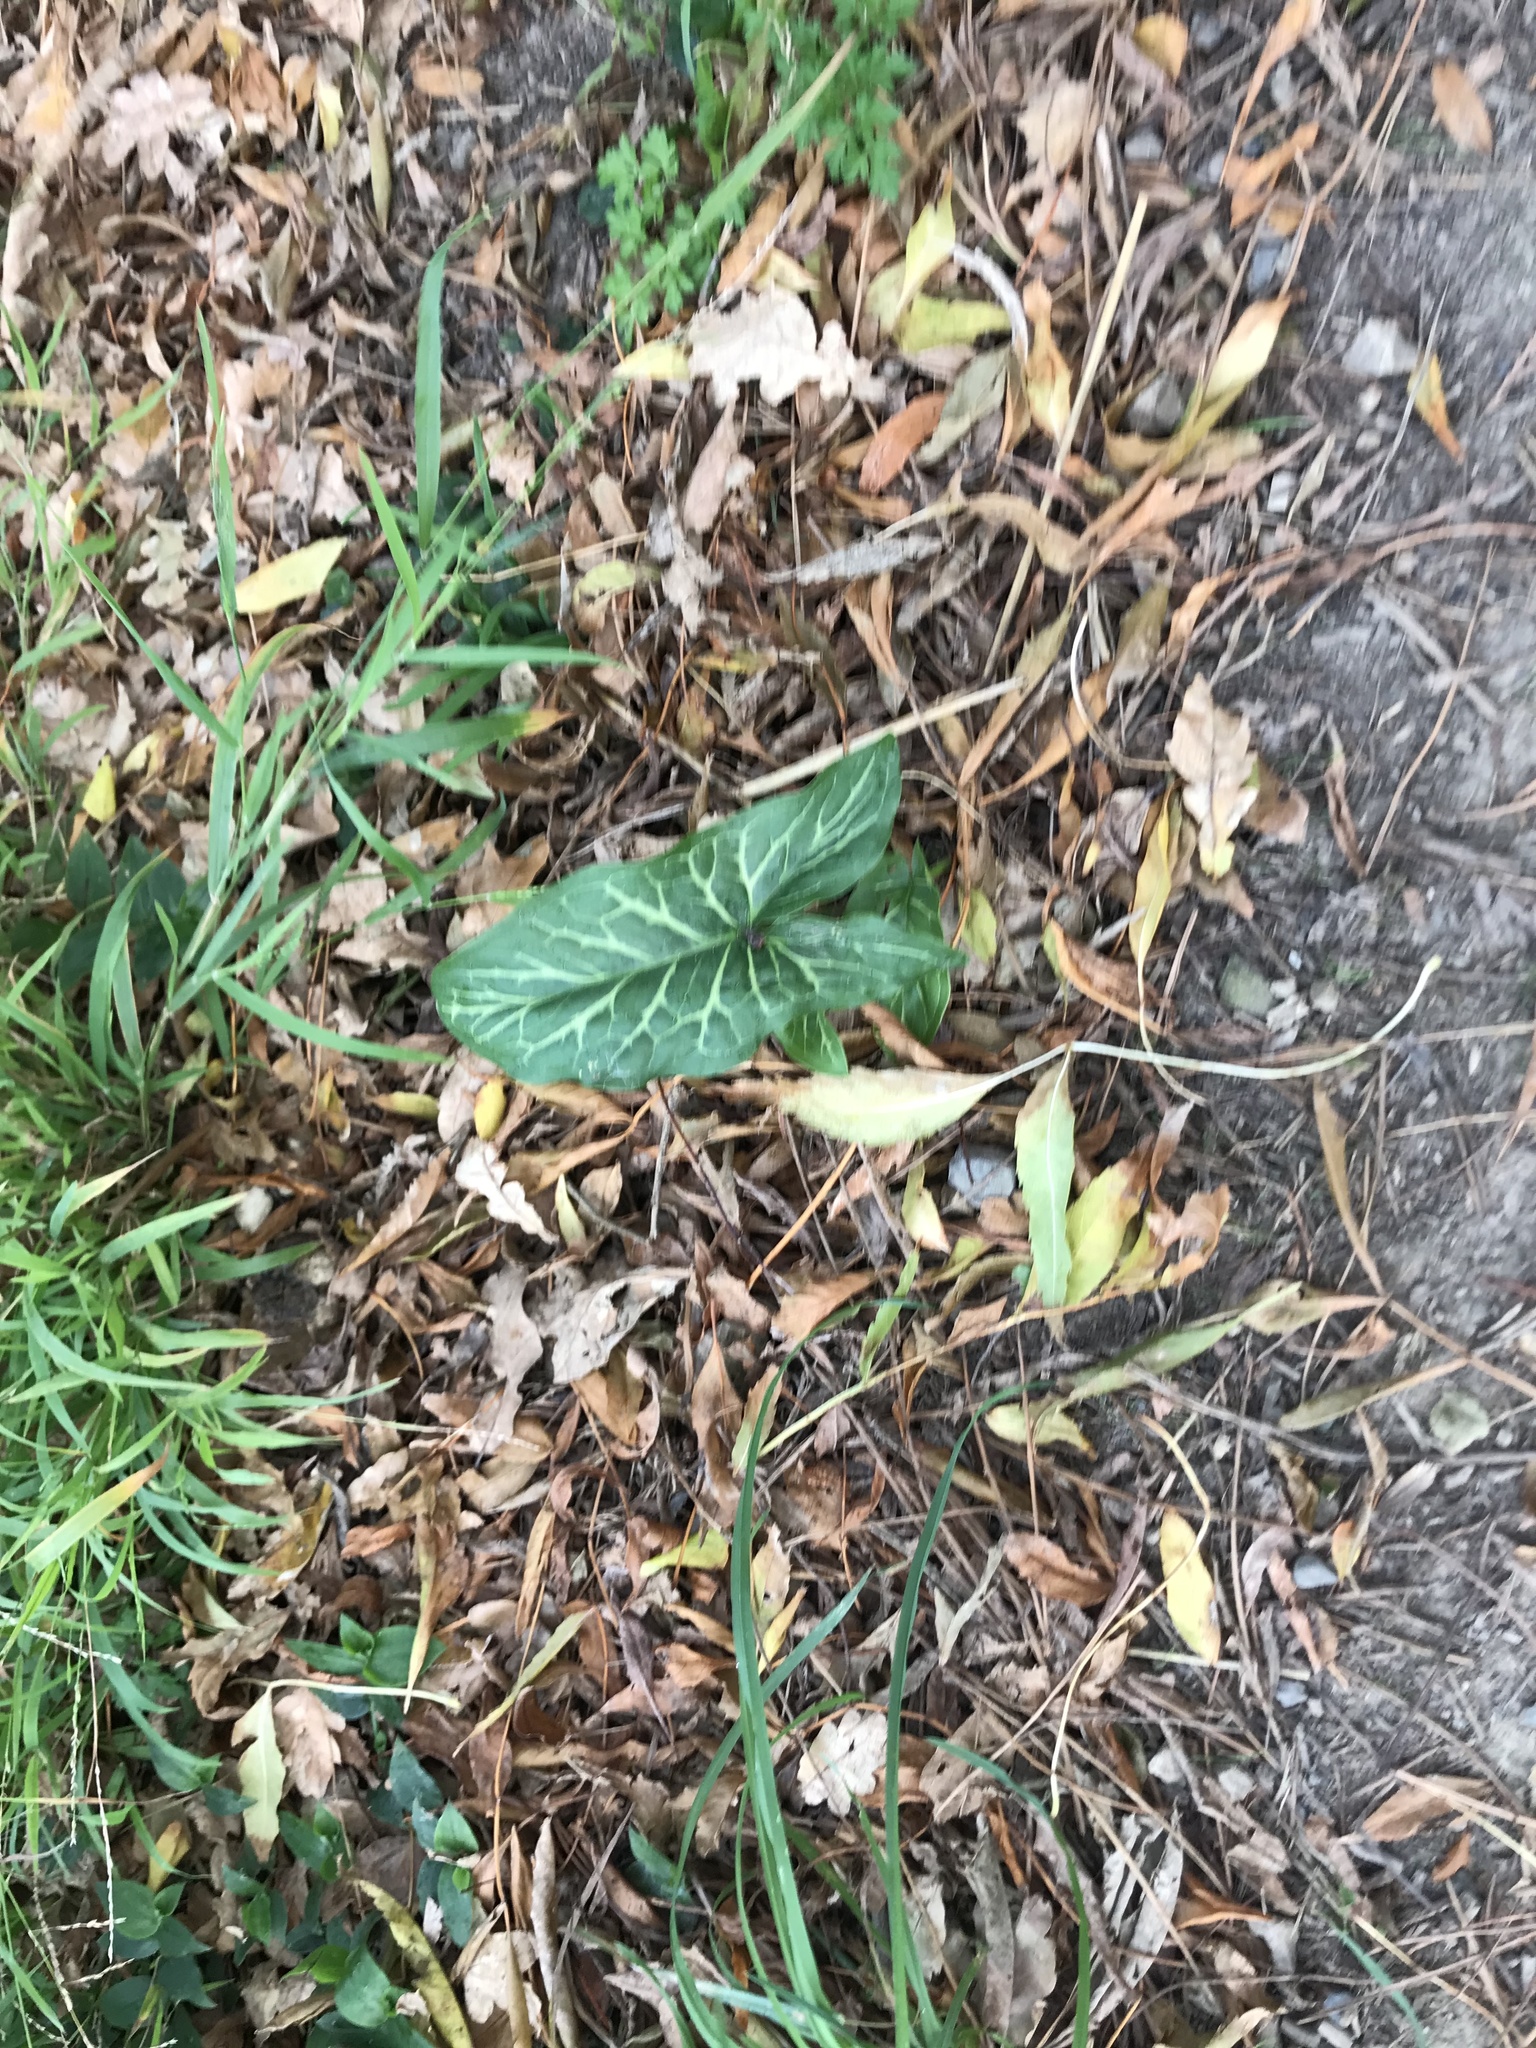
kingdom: Plantae
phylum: Tracheophyta
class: Liliopsida
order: Alismatales
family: Araceae
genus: Arum
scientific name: Arum italicum
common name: Italian lords-and-ladies
